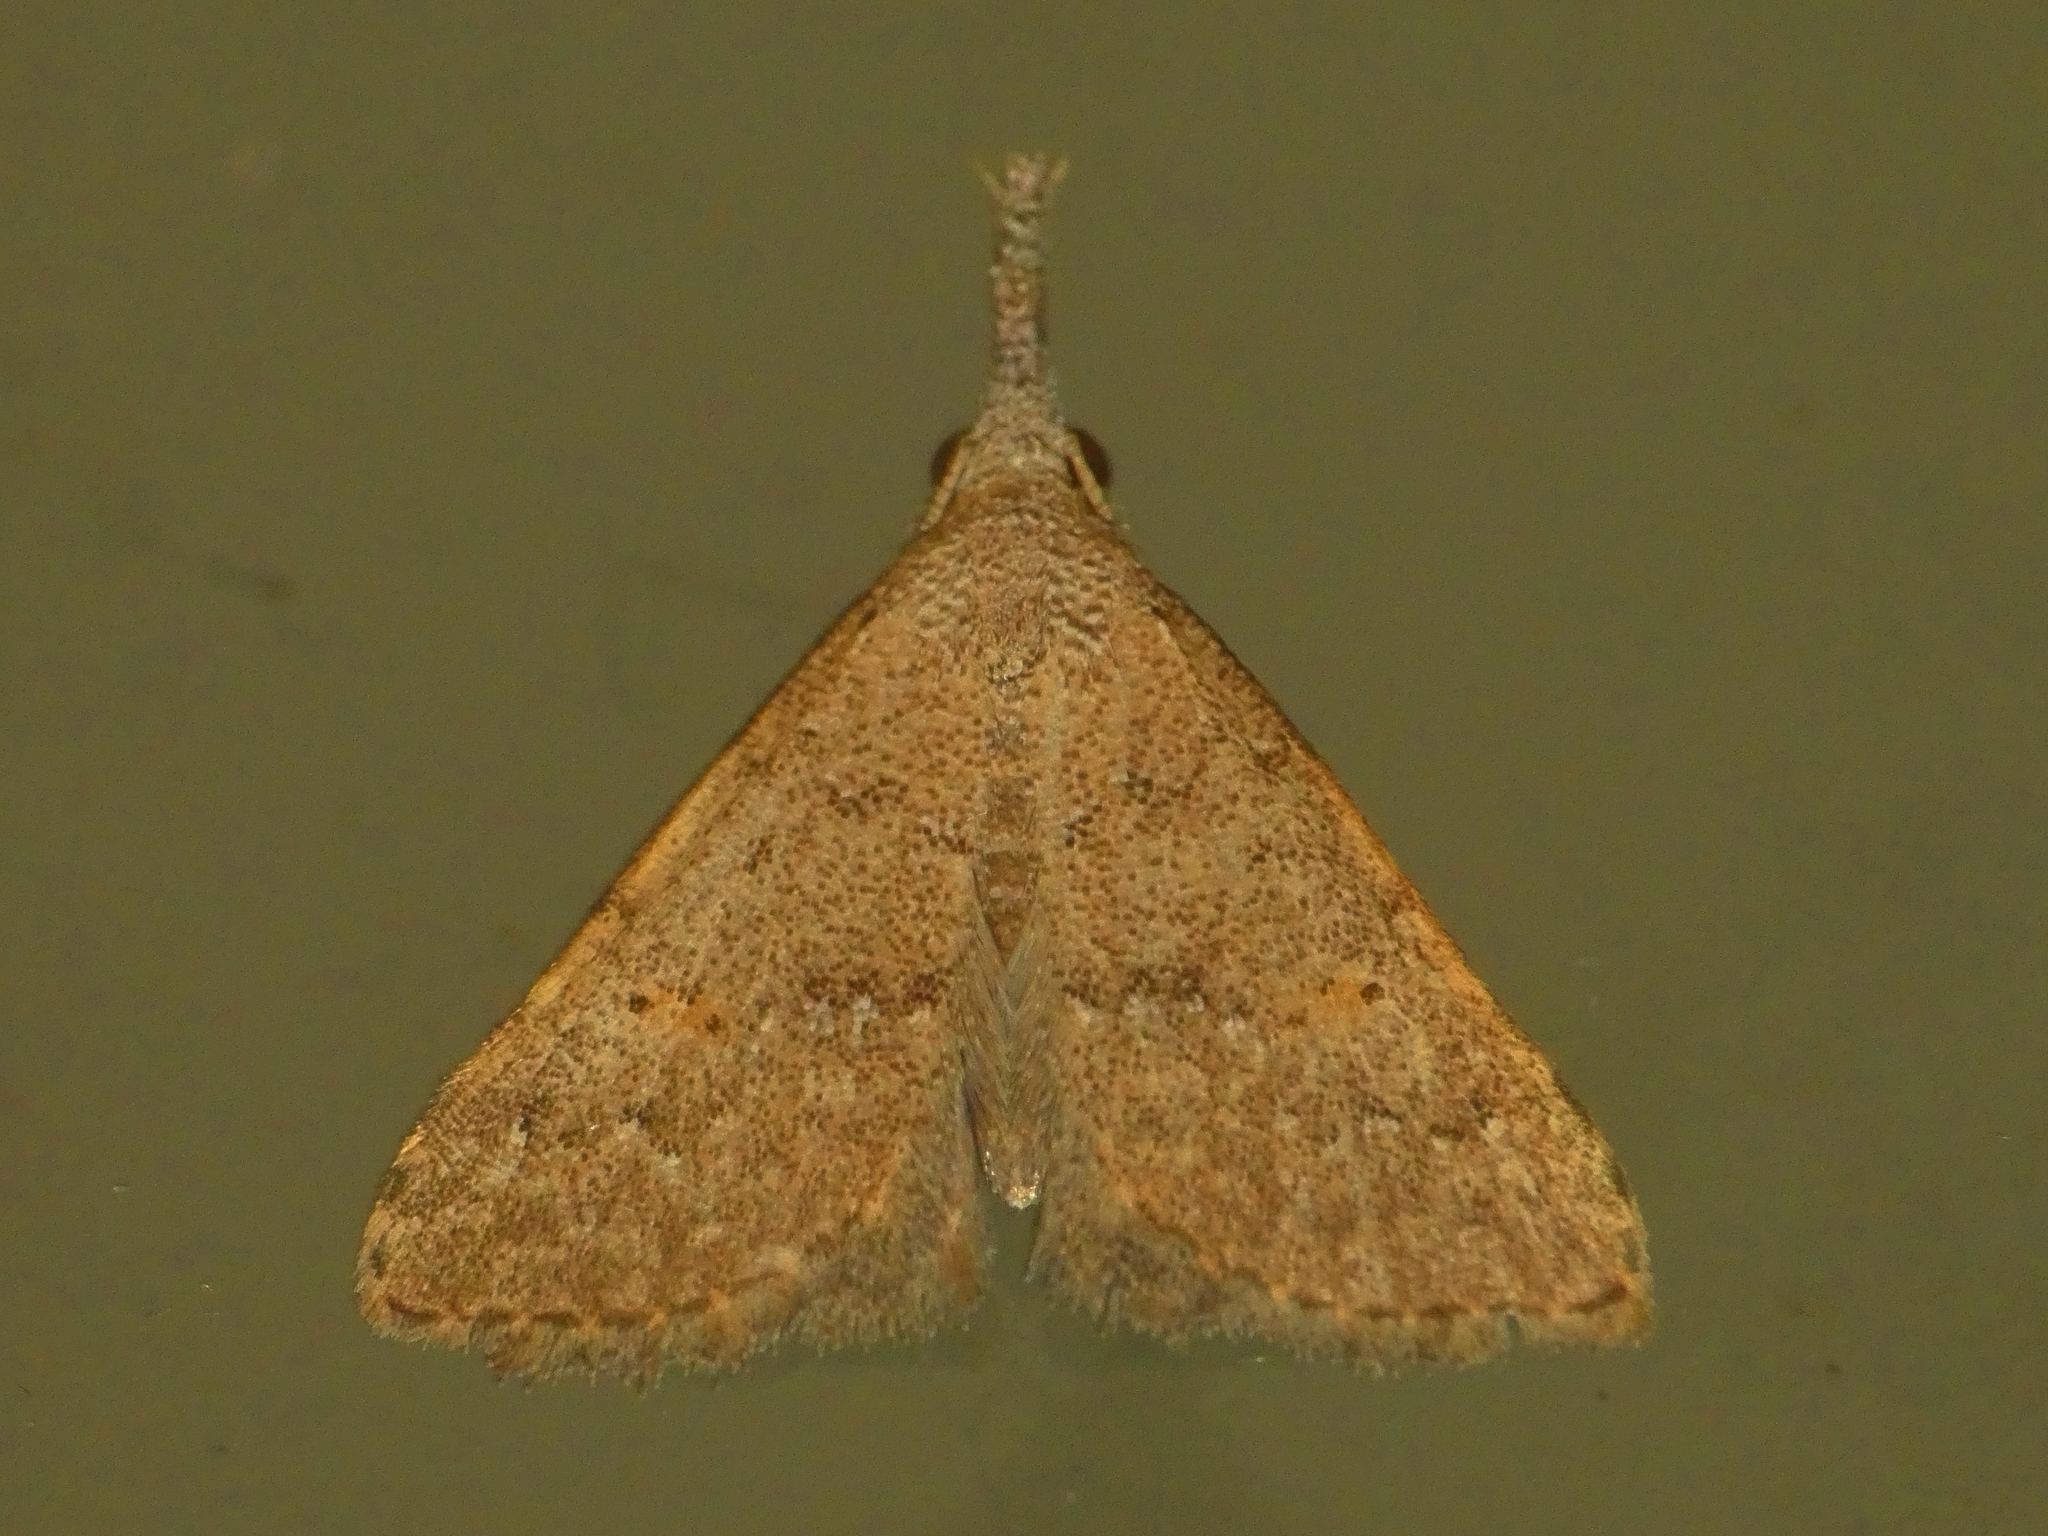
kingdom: Animalia
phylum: Arthropoda
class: Insecta
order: Lepidoptera
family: Erebidae
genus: Arrade
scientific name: Arrade
